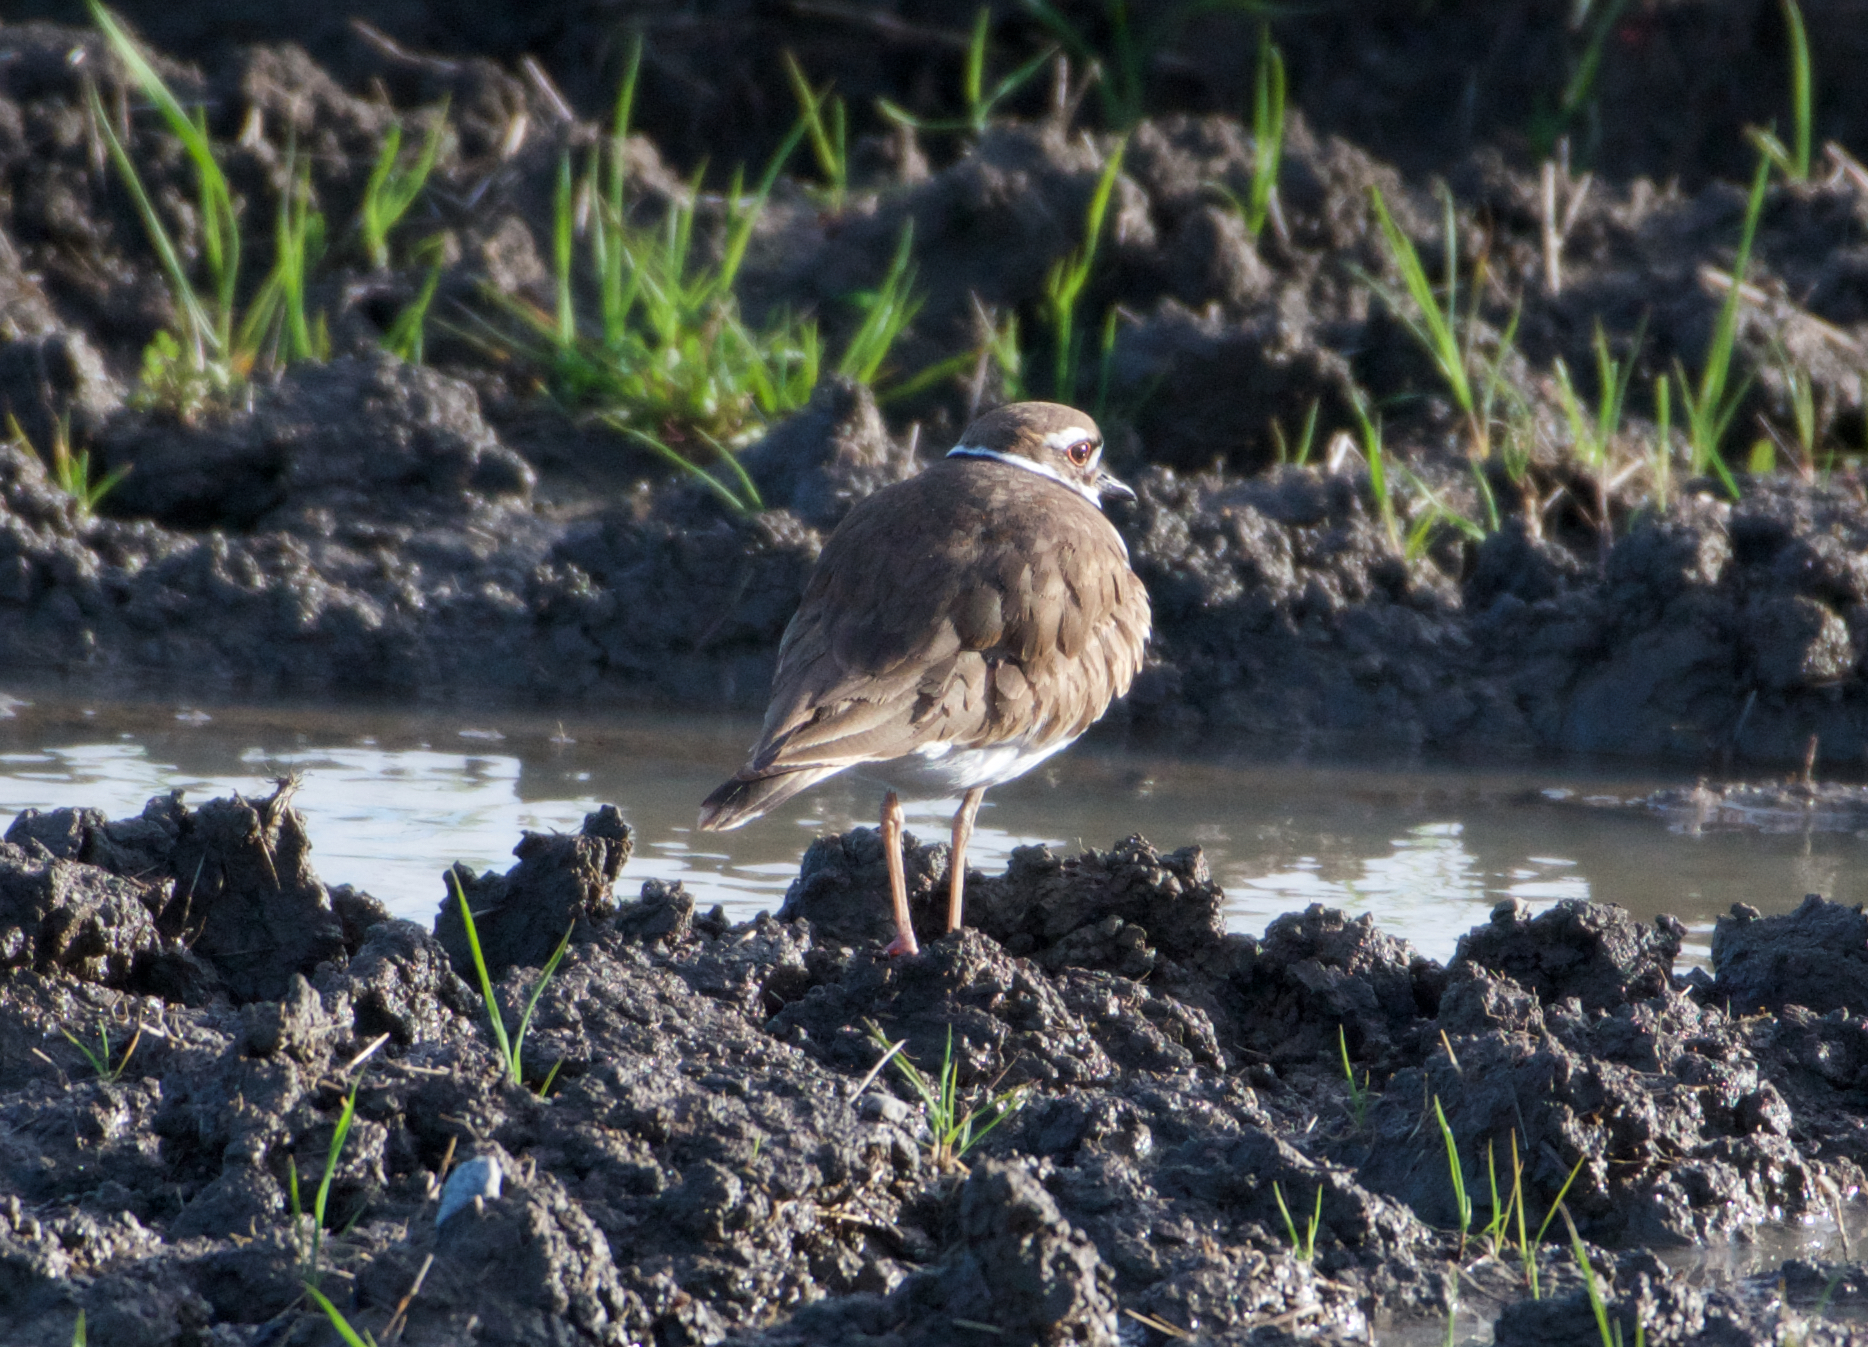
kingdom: Animalia
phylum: Chordata
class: Aves
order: Charadriiformes
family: Charadriidae
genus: Charadrius
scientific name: Charadrius vociferus
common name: Killdeer
